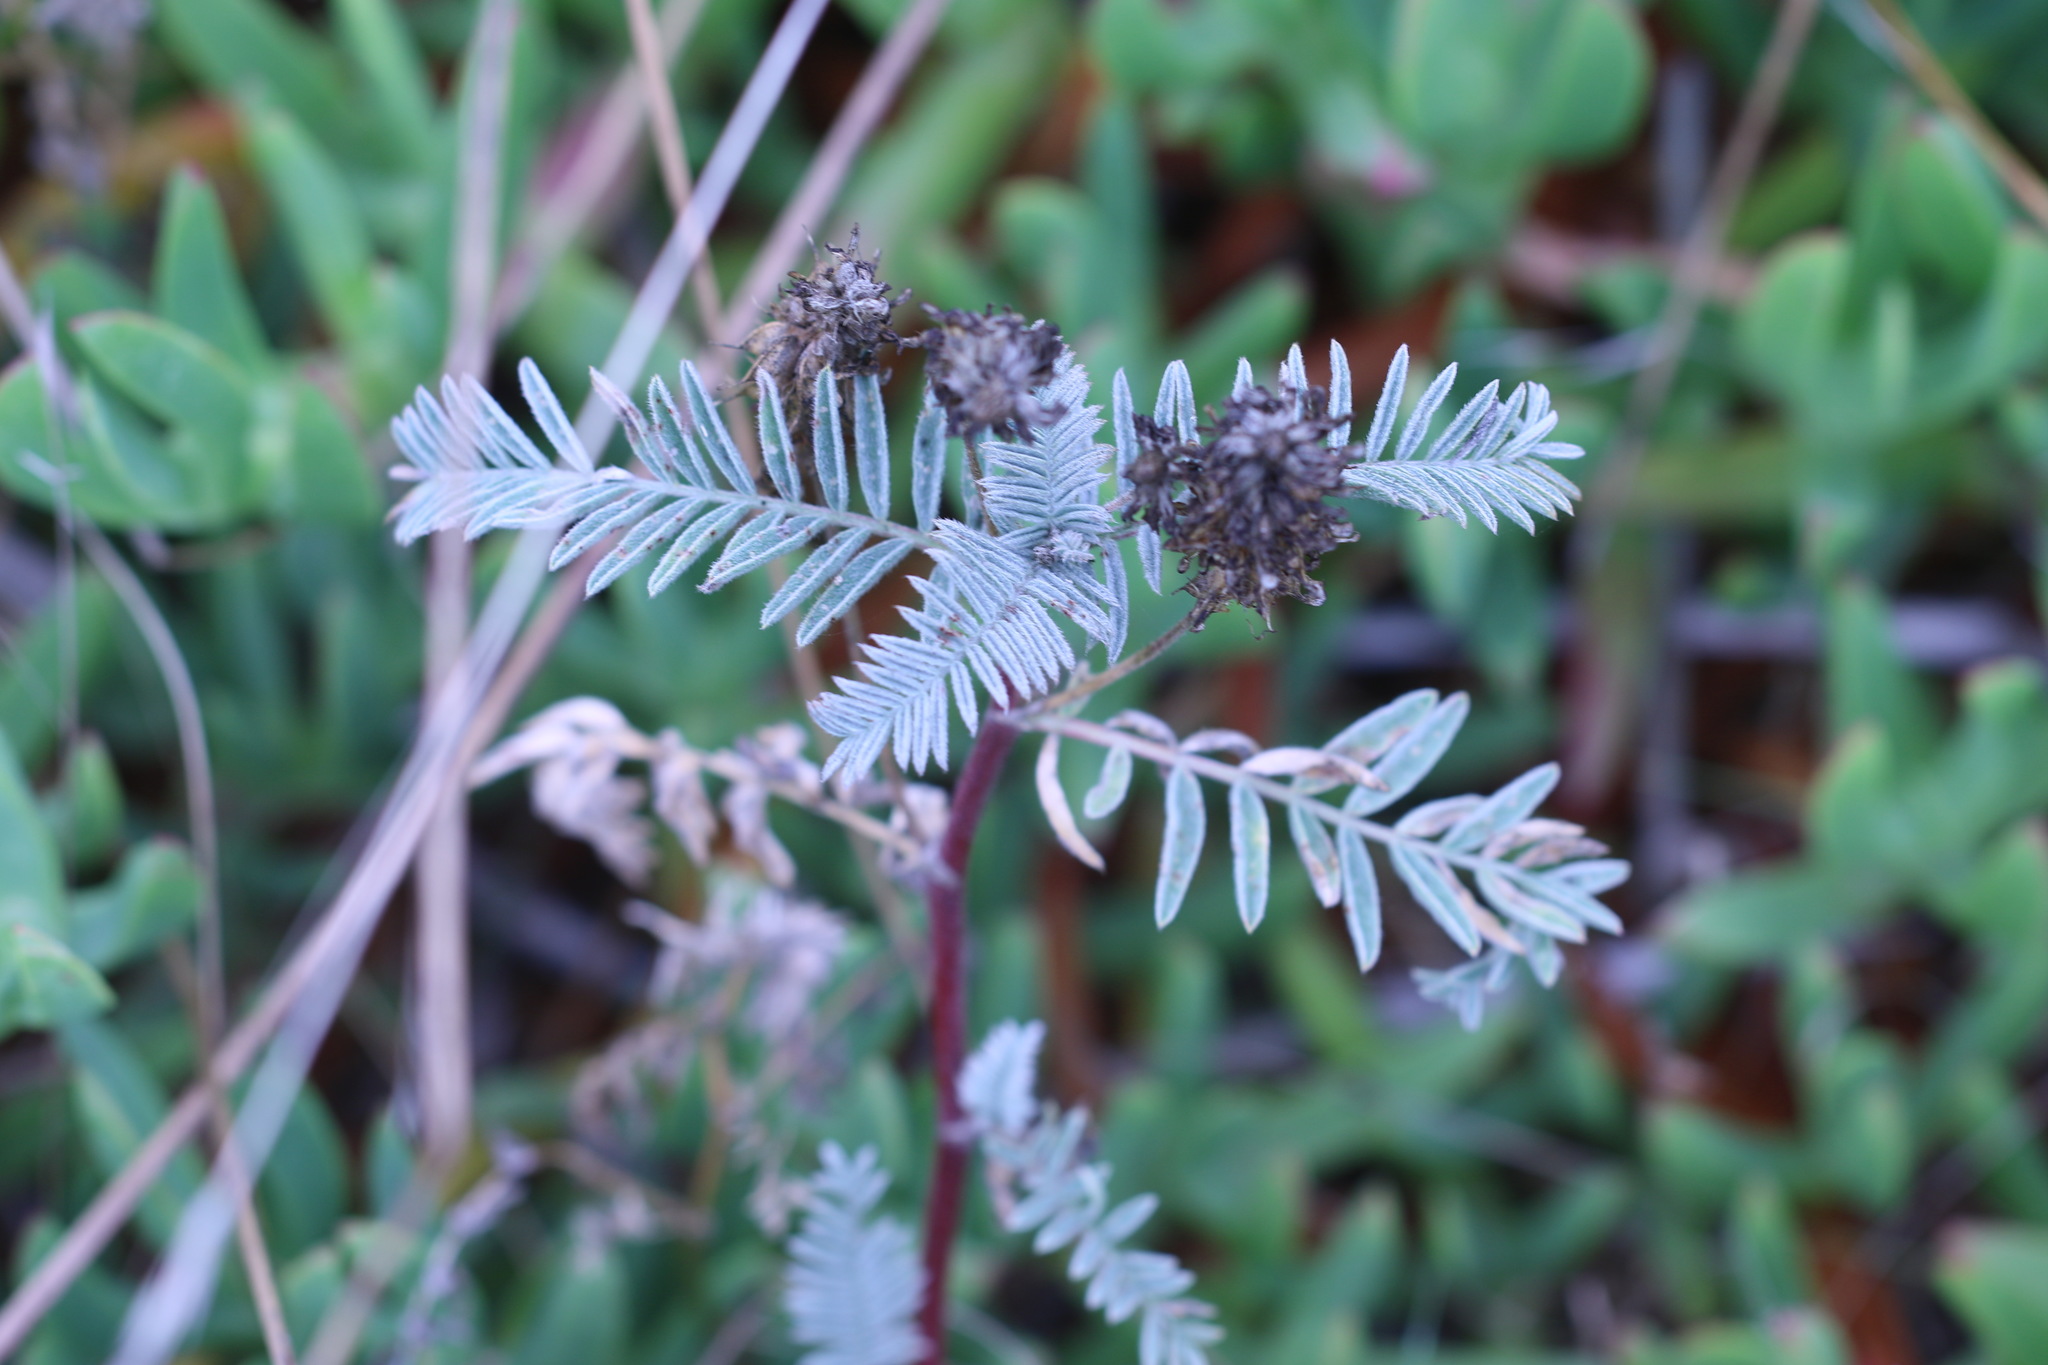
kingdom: Plantae
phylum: Tracheophyta
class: Magnoliopsida
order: Fabales
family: Fabaceae
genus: Astragalus
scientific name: Astragalus pycnostachyus
